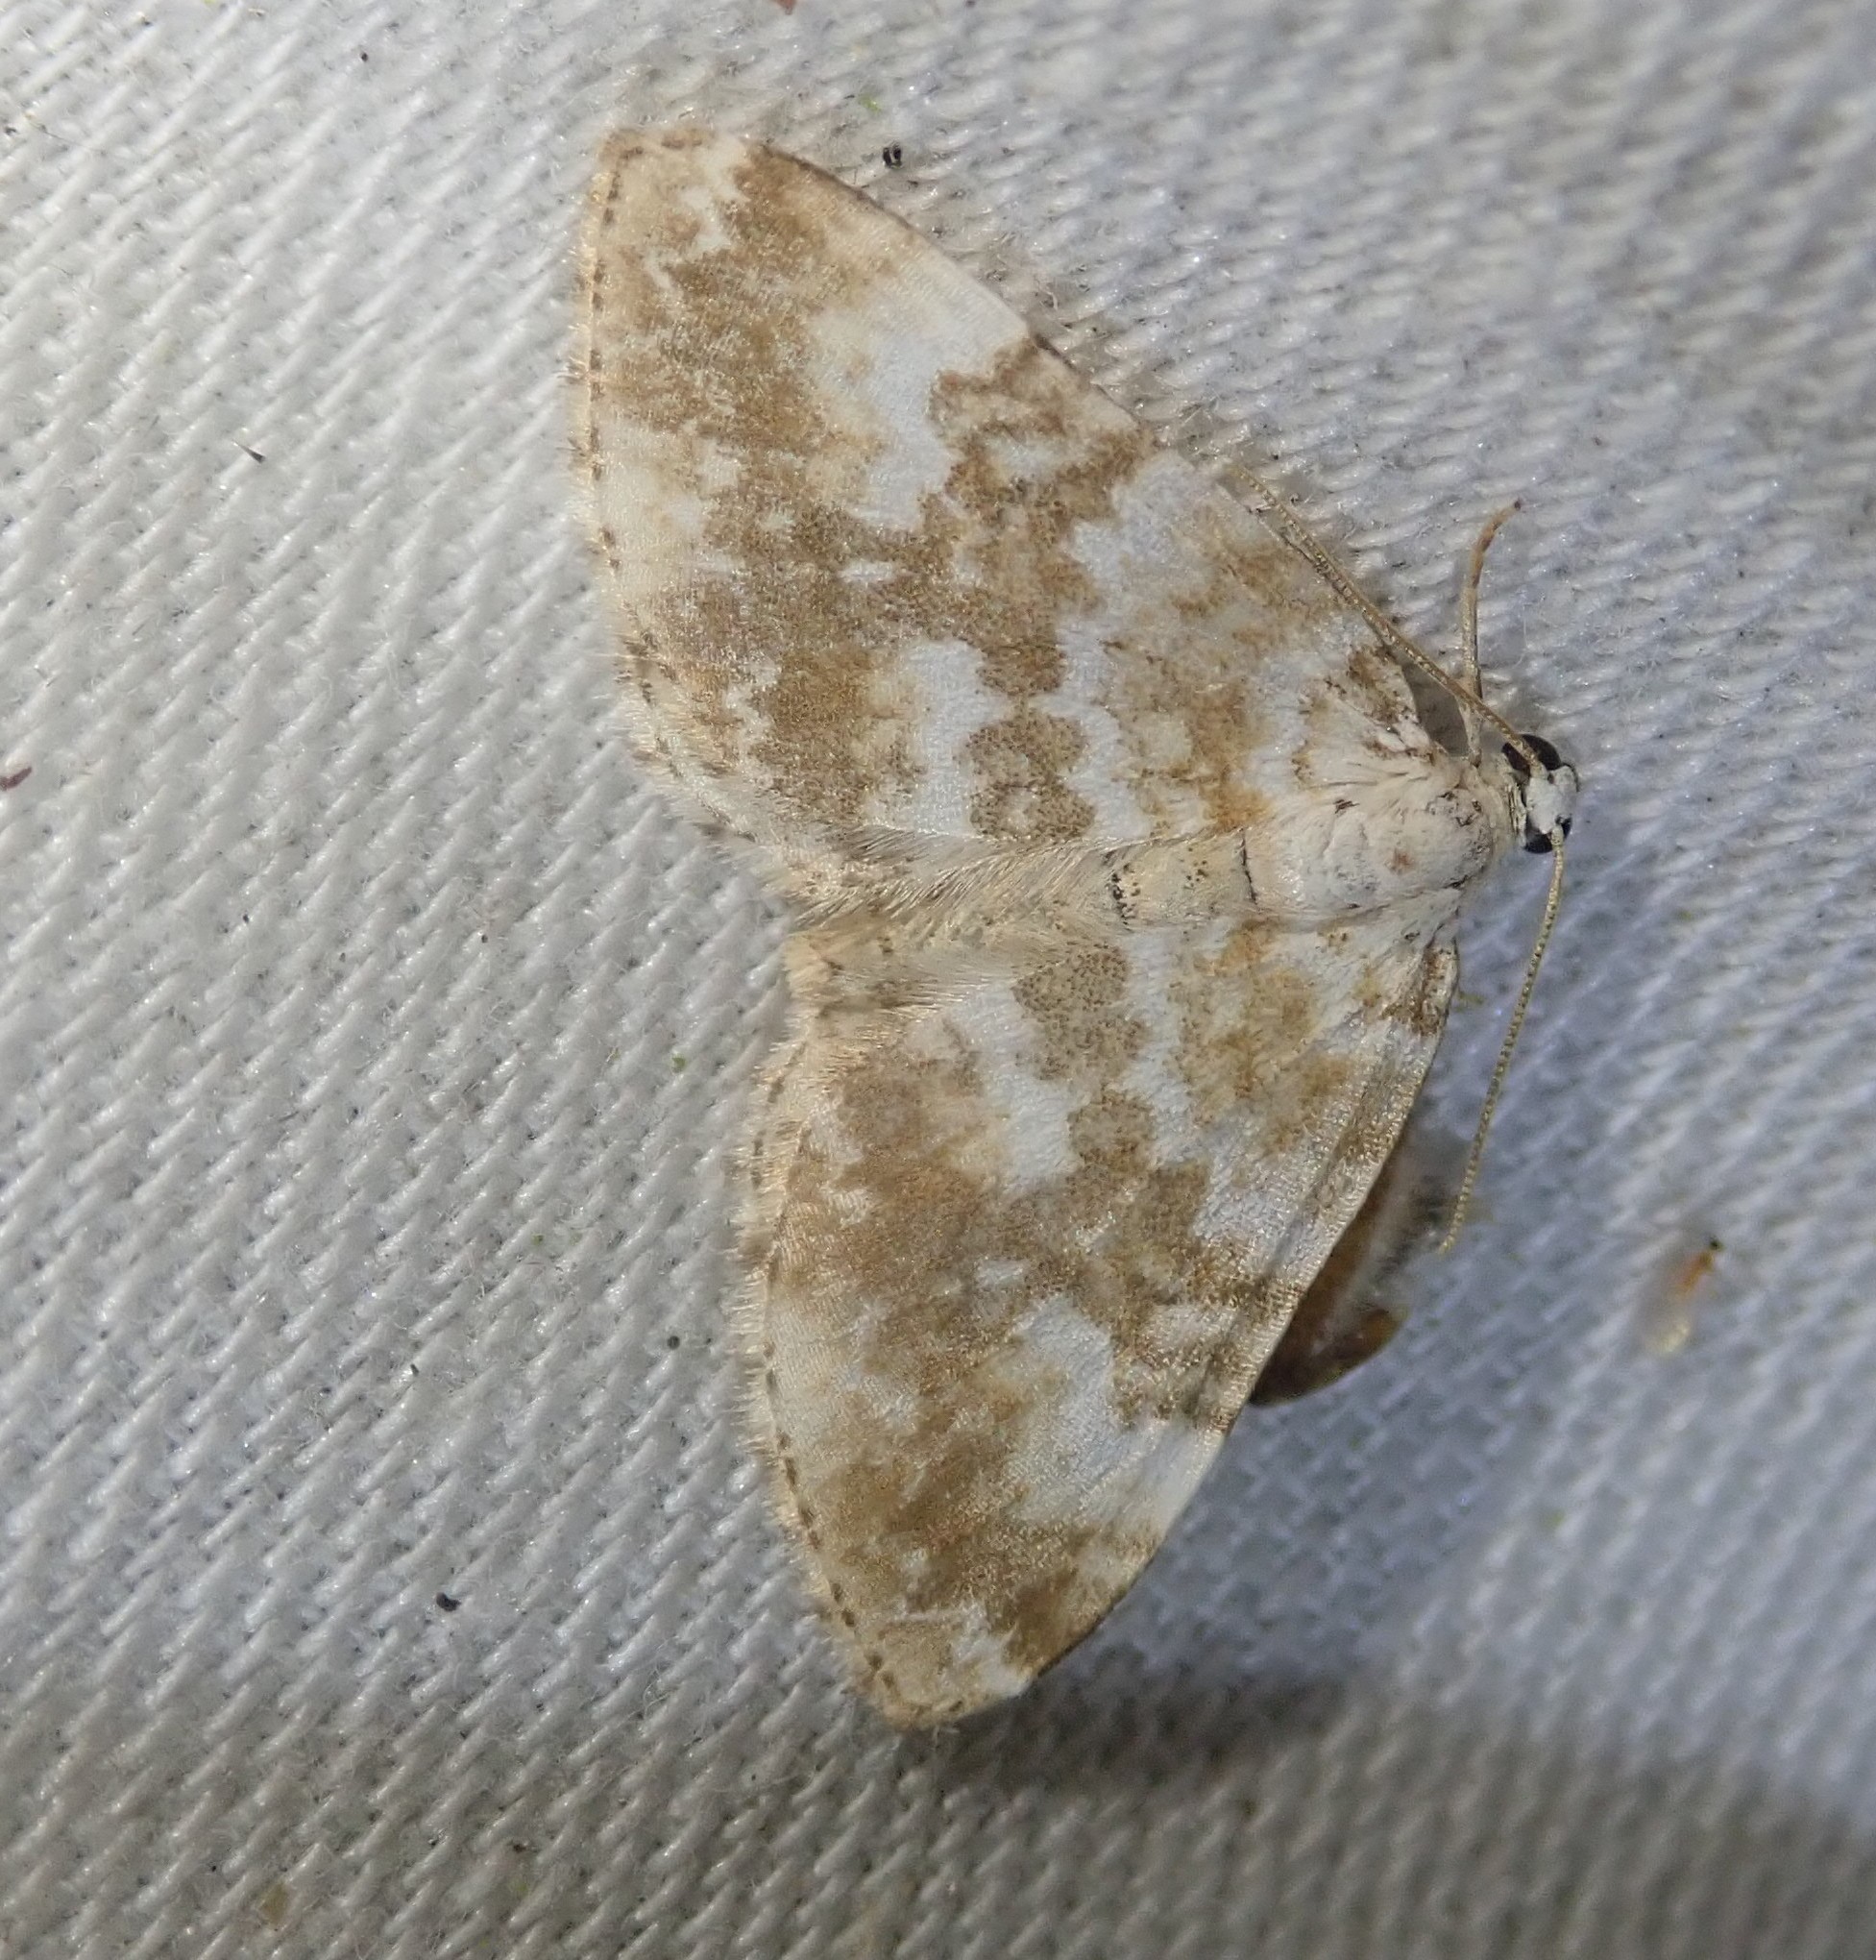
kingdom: Animalia
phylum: Arthropoda
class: Insecta
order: Lepidoptera
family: Geometridae
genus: Perizoma
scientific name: Perizoma flavofasciata
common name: Sandy carpet
